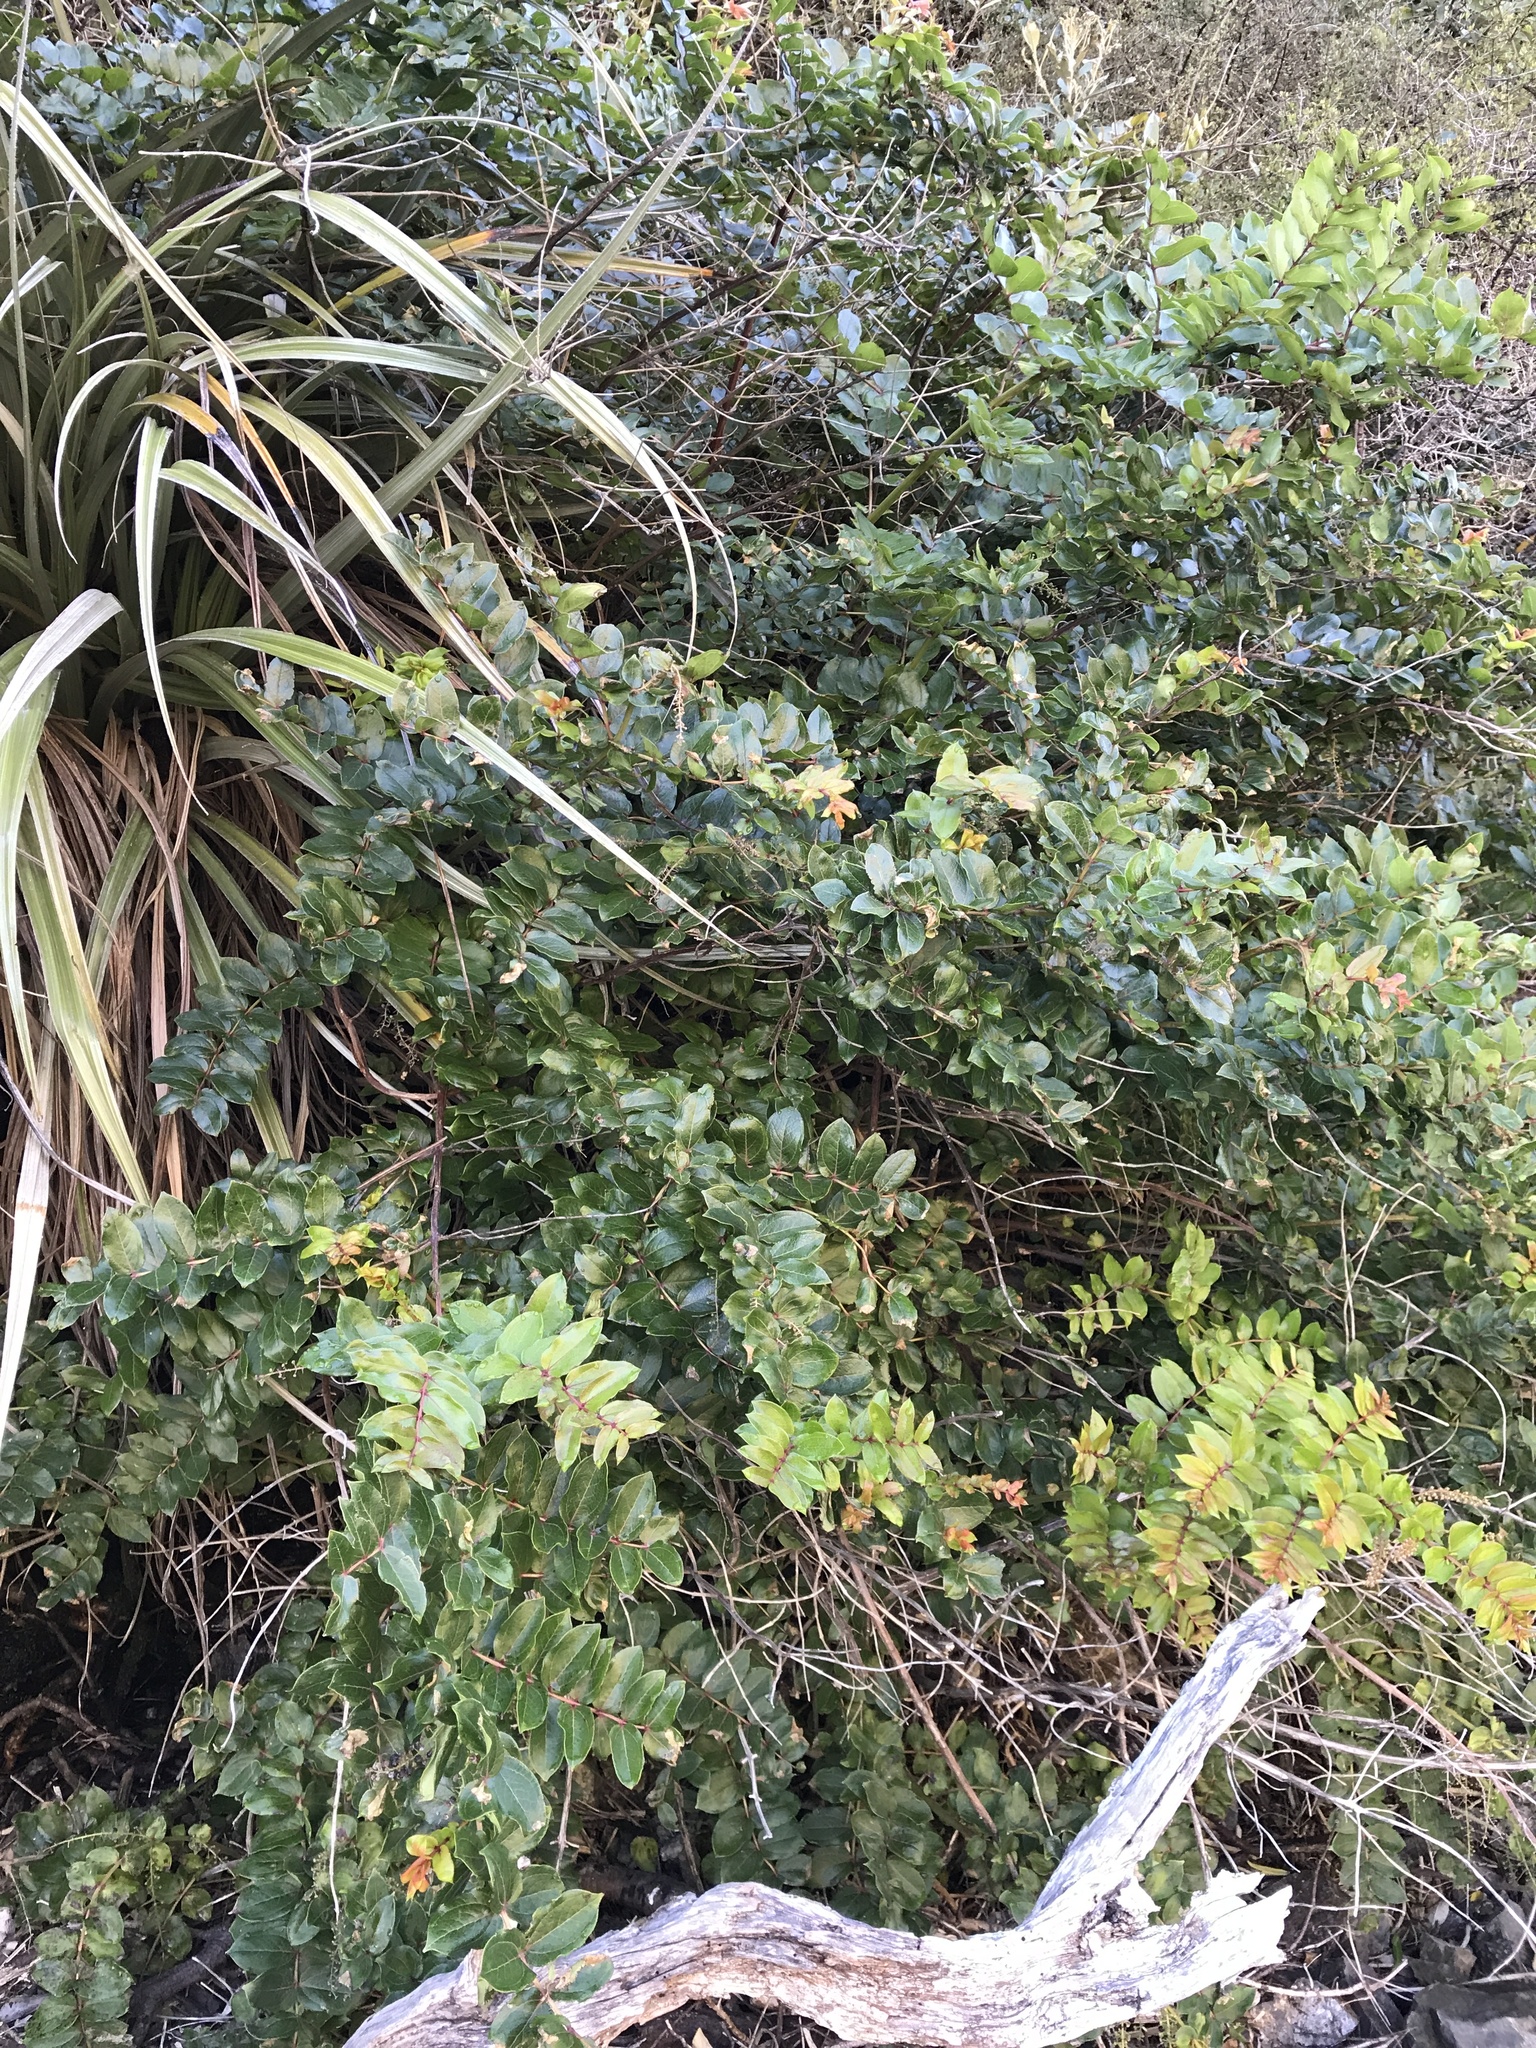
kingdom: Plantae
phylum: Tracheophyta
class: Magnoliopsida
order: Cucurbitales
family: Coriariaceae
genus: Coriaria
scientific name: Coriaria arborea
